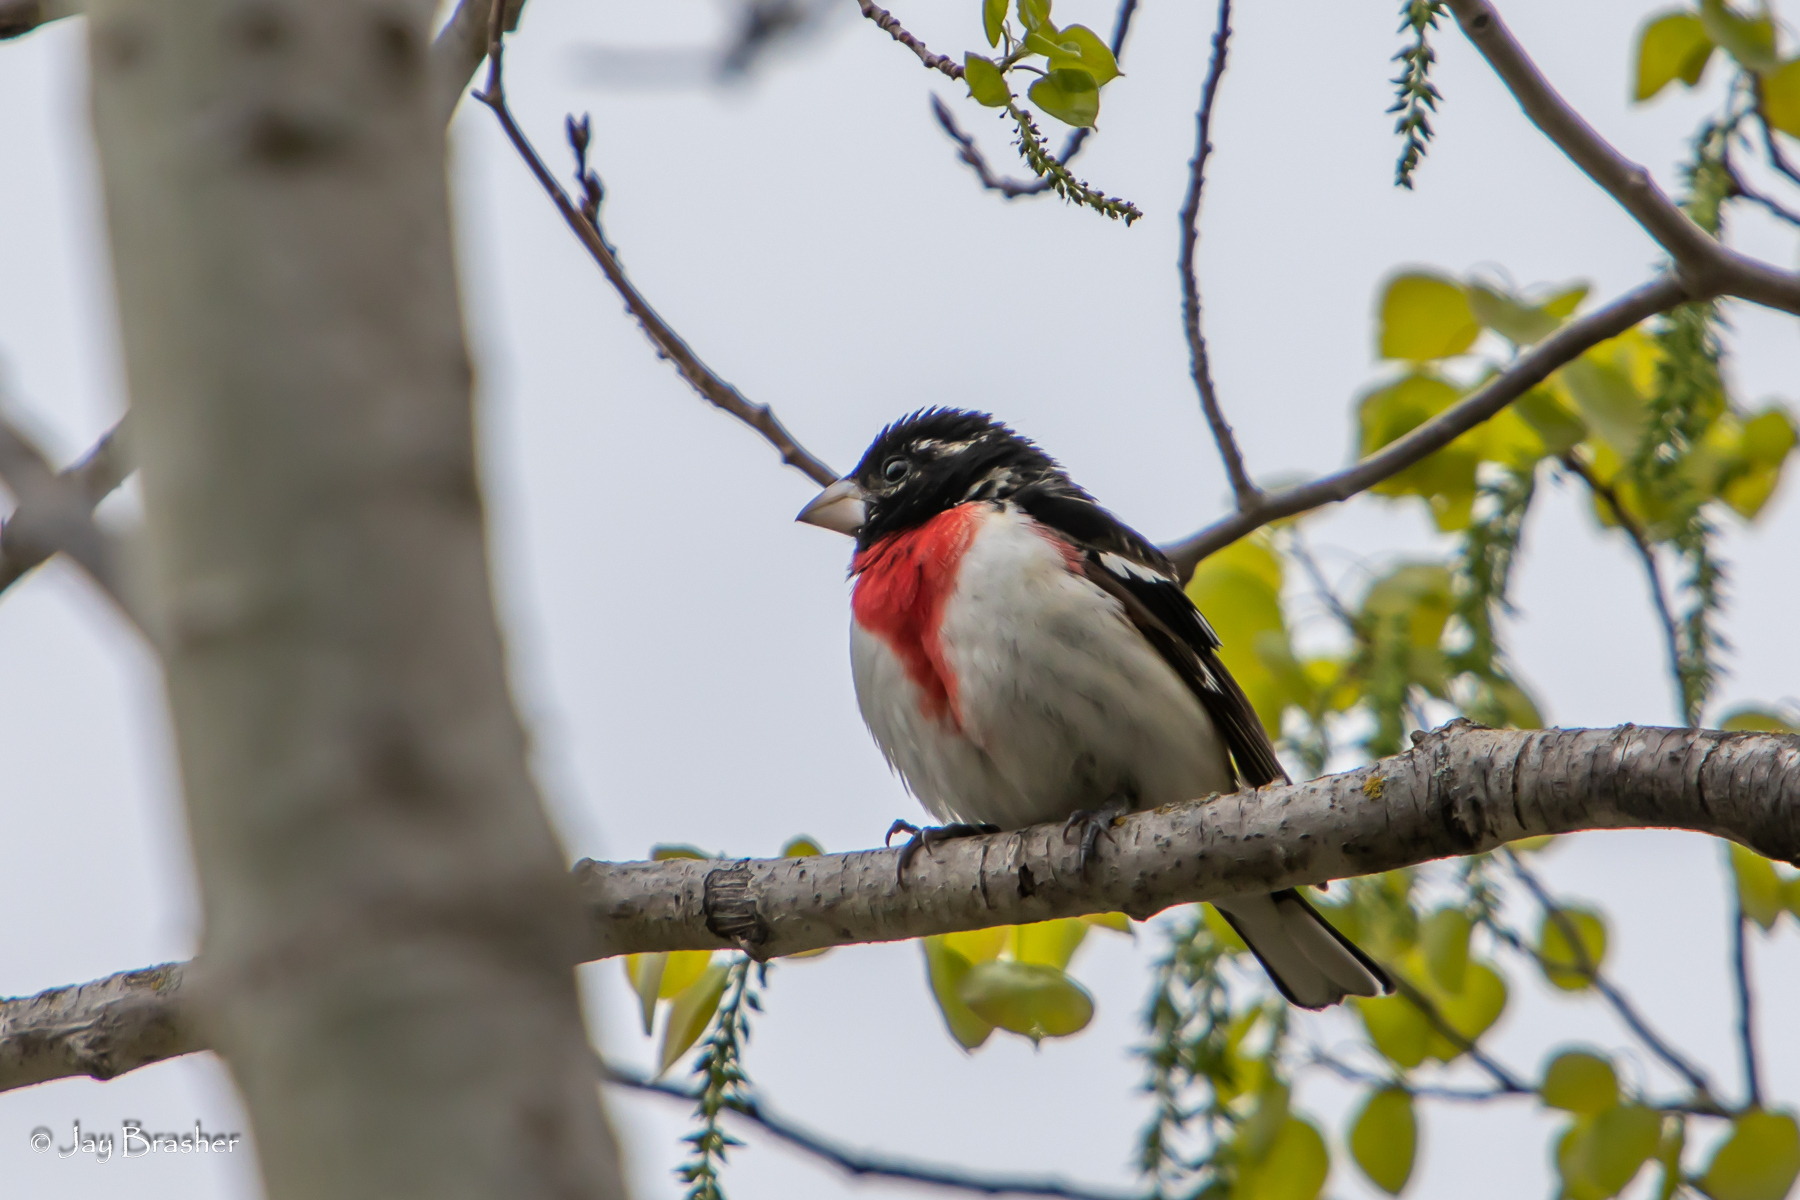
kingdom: Animalia
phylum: Chordata
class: Aves
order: Passeriformes
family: Cardinalidae
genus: Pheucticus
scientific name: Pheucticus ludovicianus
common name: Rose-breasted grosbeak
